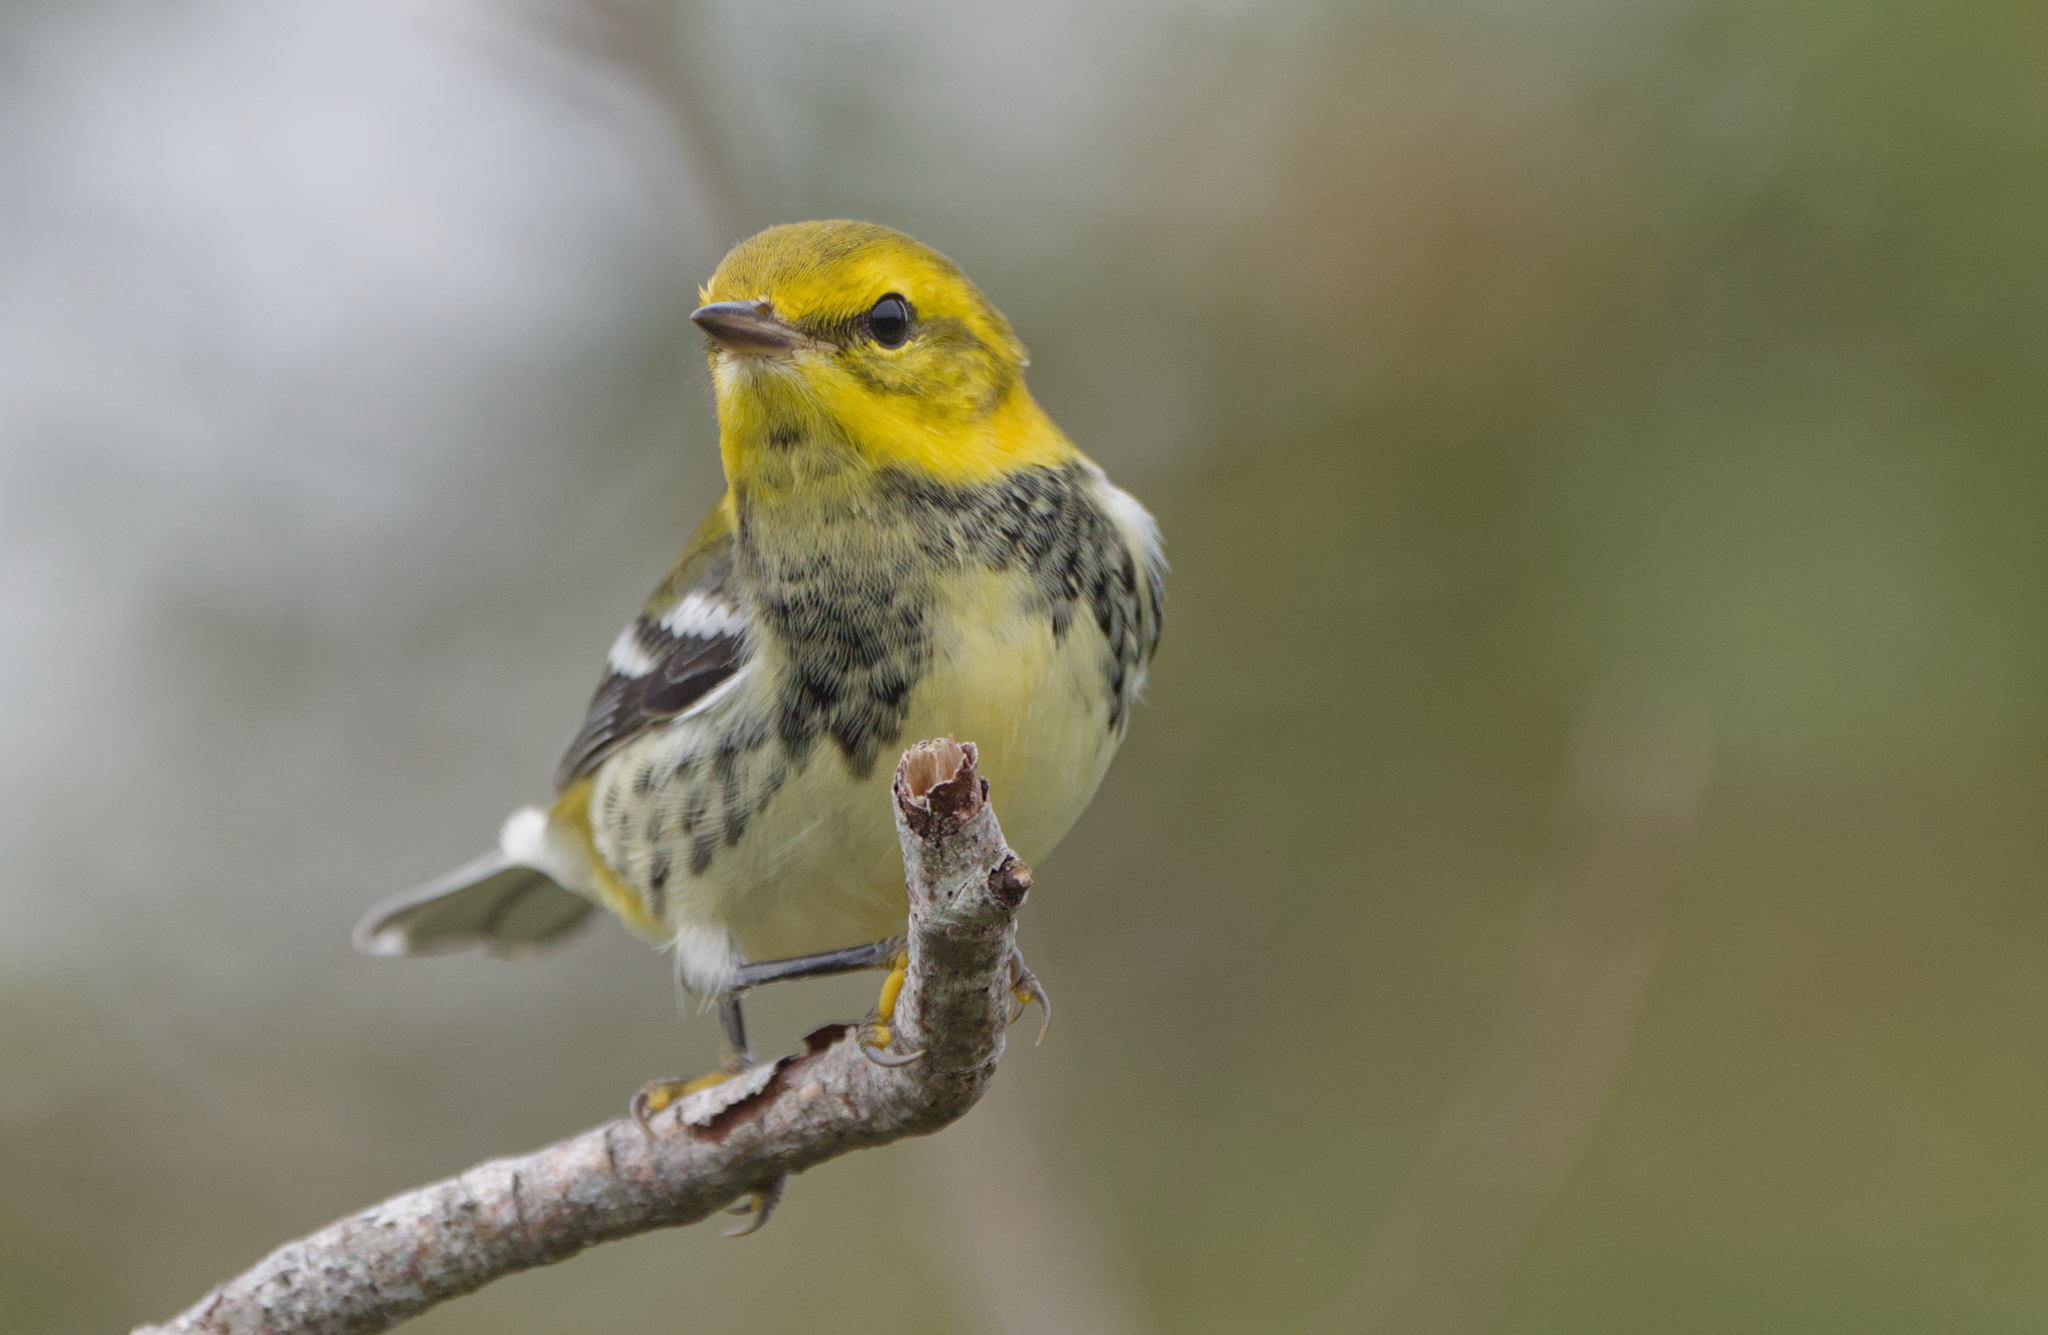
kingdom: Animalia
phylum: Chordata
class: Aves
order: Passeriformes
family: Parulidae
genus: Setophaga
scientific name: Setophaga virens
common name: Black-throated green warbler
